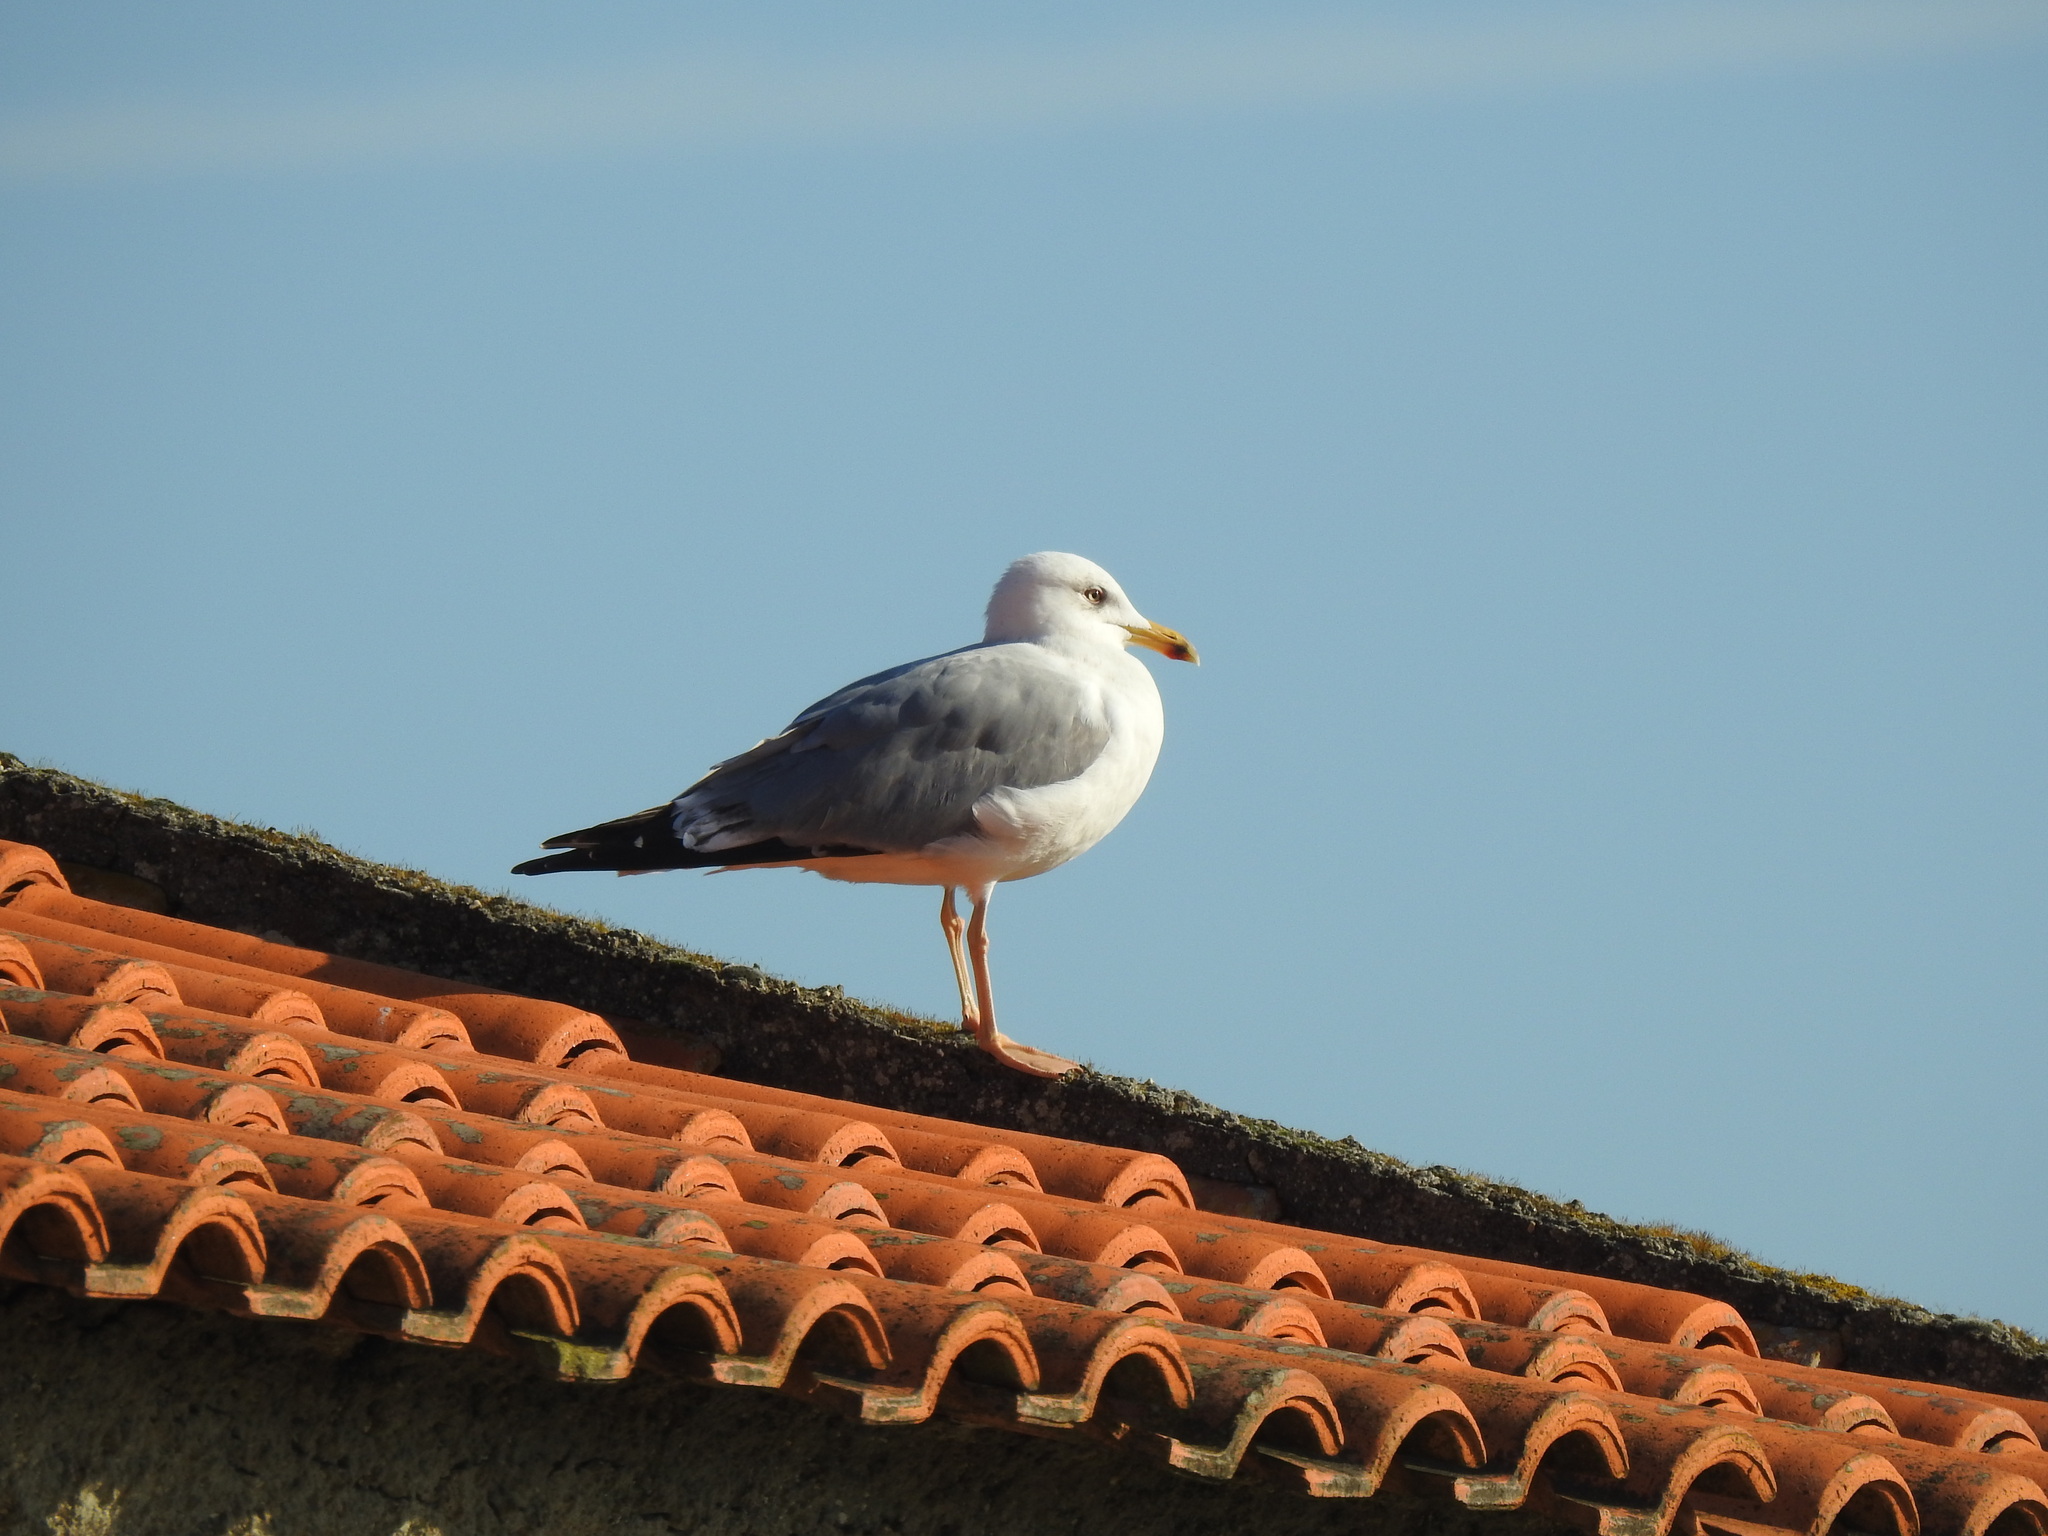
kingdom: Animalia
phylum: Chordata
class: Aves
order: Charadriiformes
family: Laridae
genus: Larus
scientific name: Larus michahellis
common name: Yellow-legged gull
